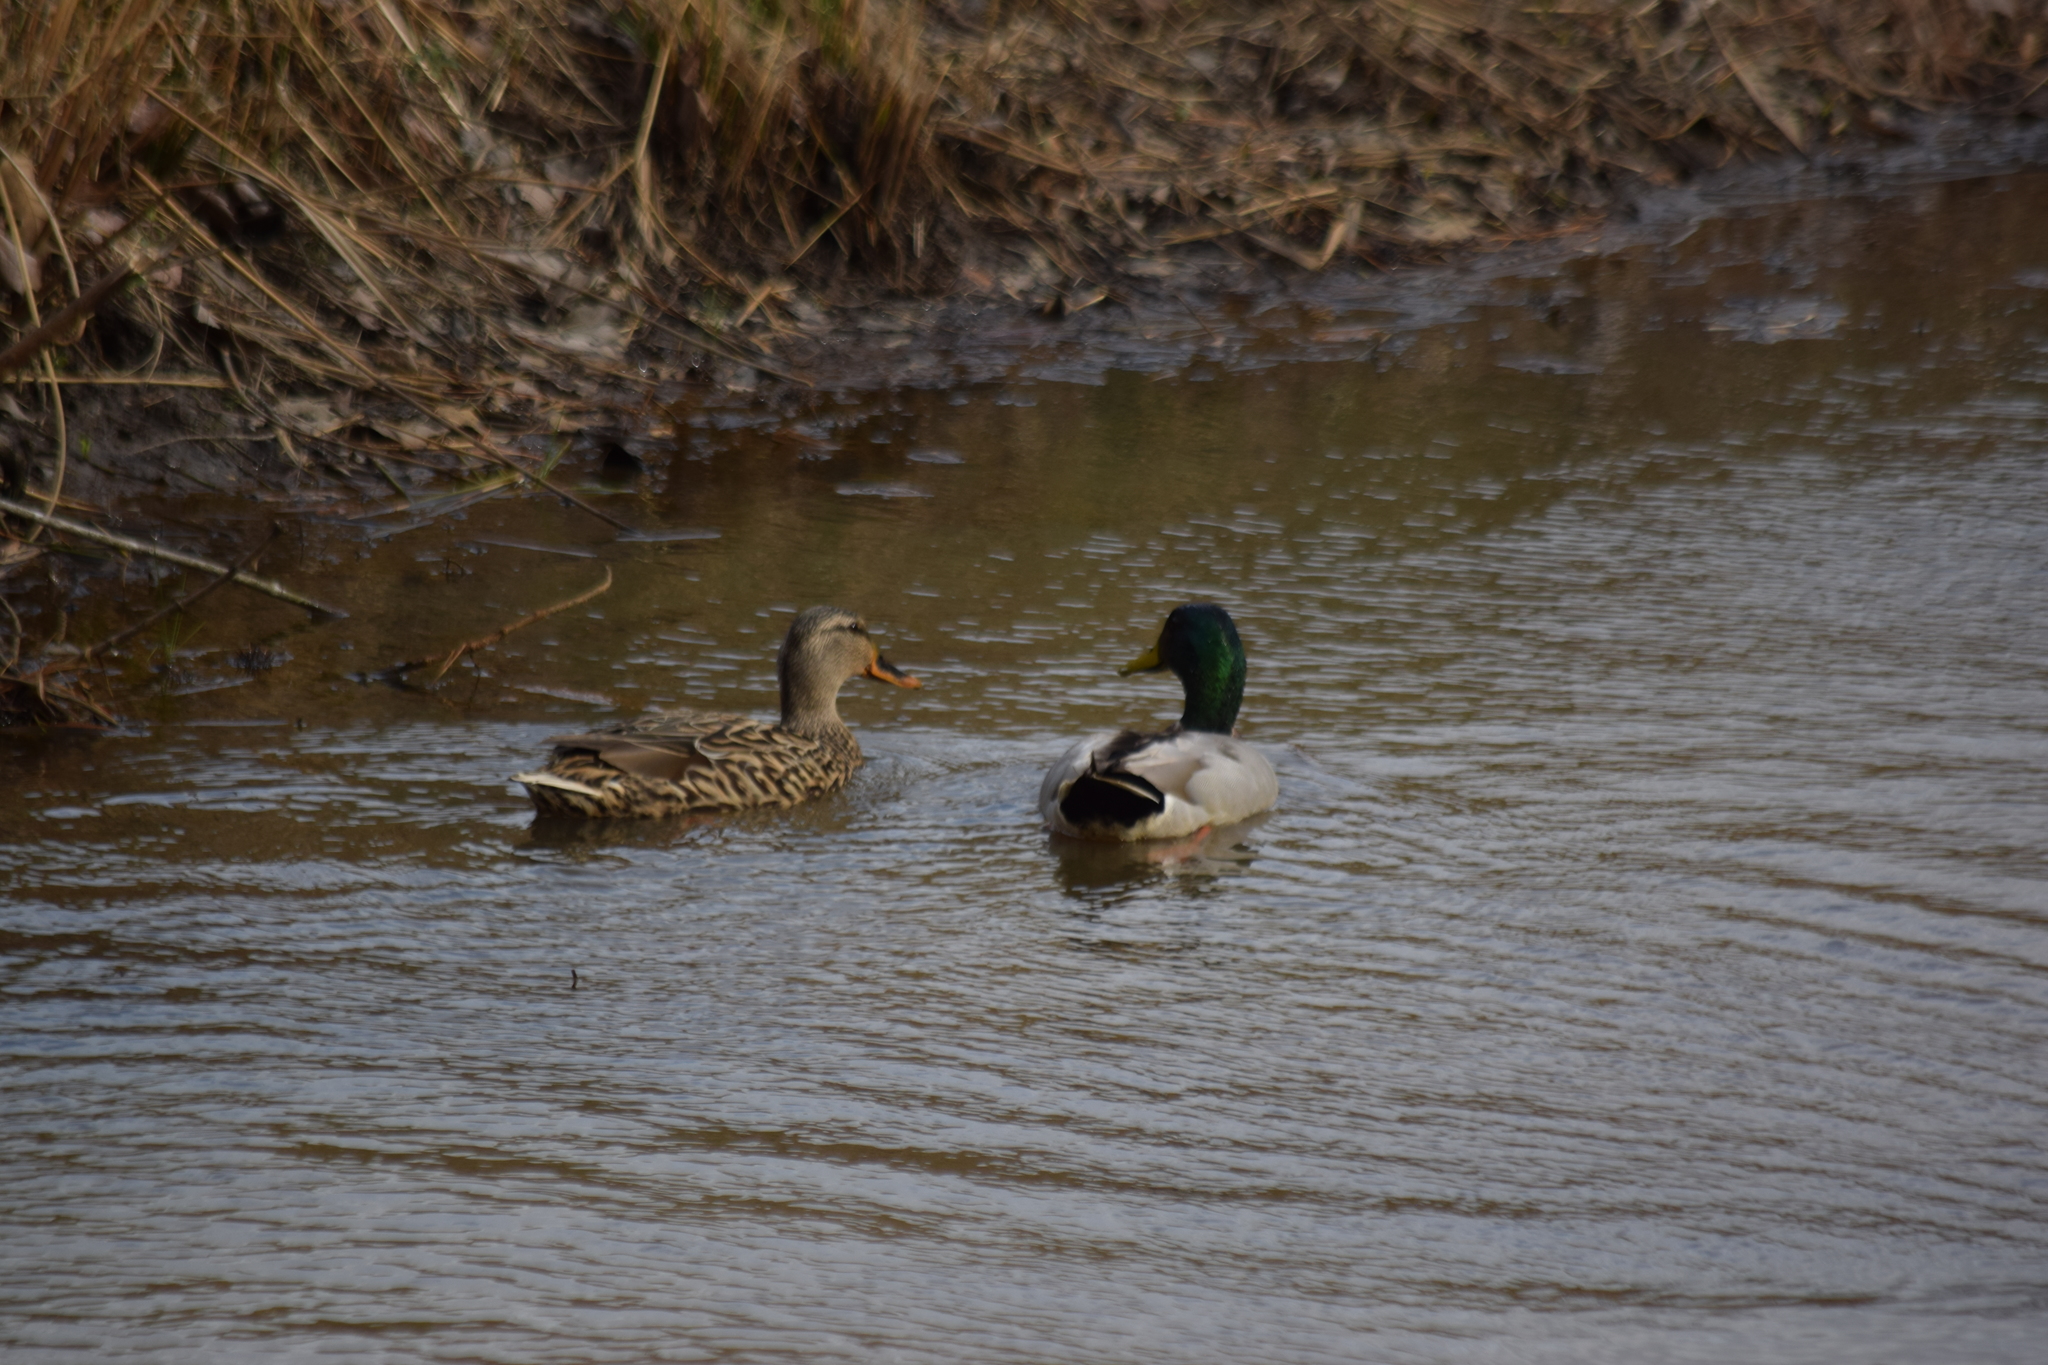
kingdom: Animalia
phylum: Chordata
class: Aves
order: Anseriformes
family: Anatidae
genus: Anas
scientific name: Anas platyrhynchos
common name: Mallard
